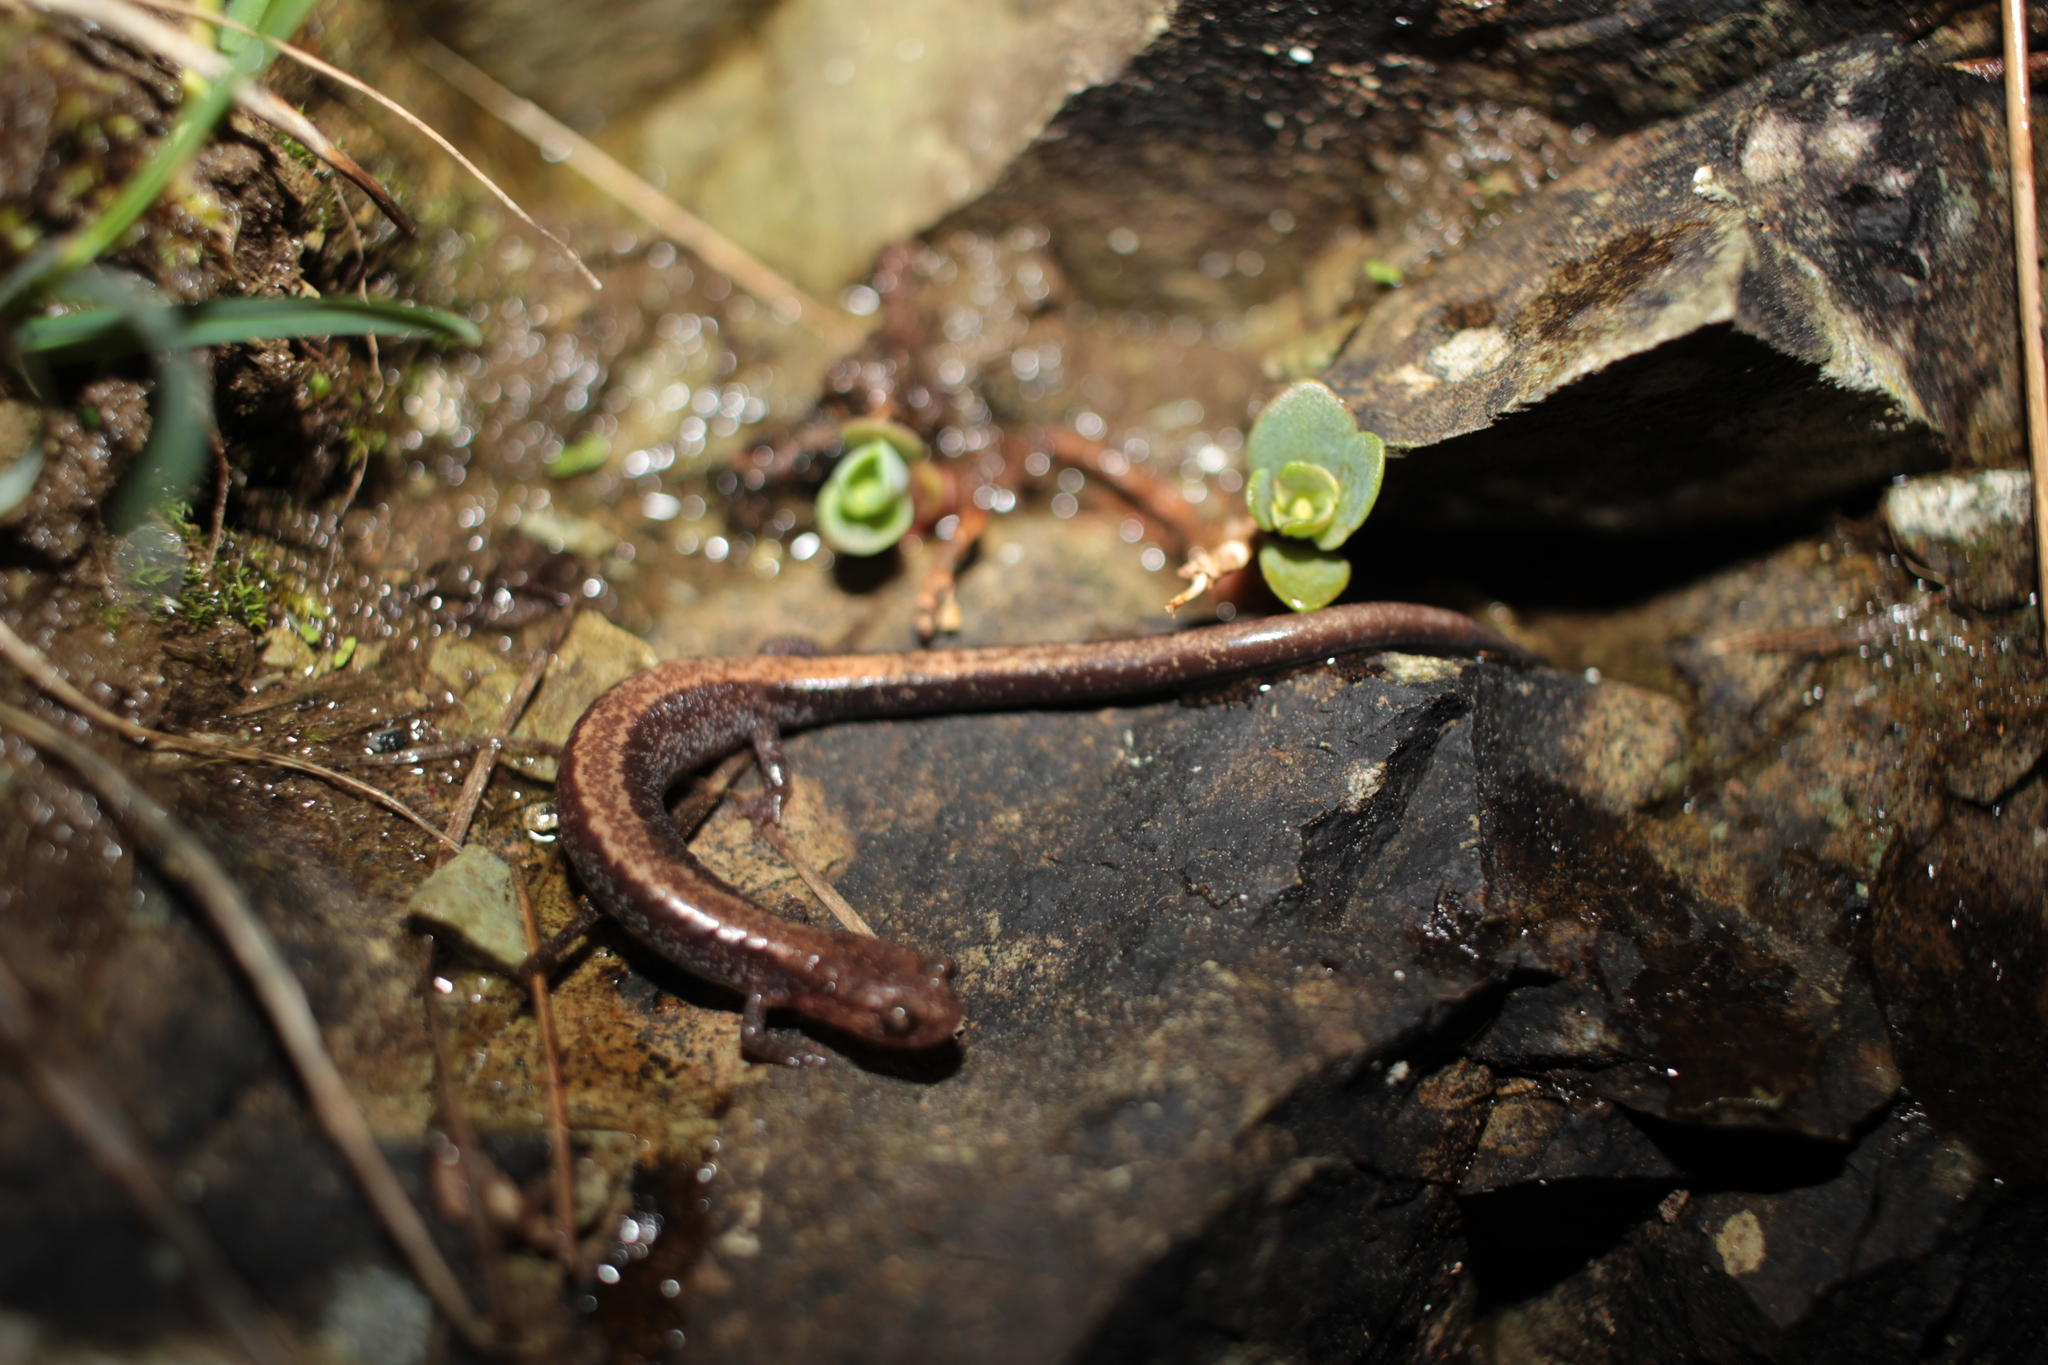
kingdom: Plantae
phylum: Tracheophyta
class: Magnoliopsida
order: Saxifragales
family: Crassulaceae
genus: Hylotelephium
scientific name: Hylotelephium telephioides
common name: Allegheny stonecrop
